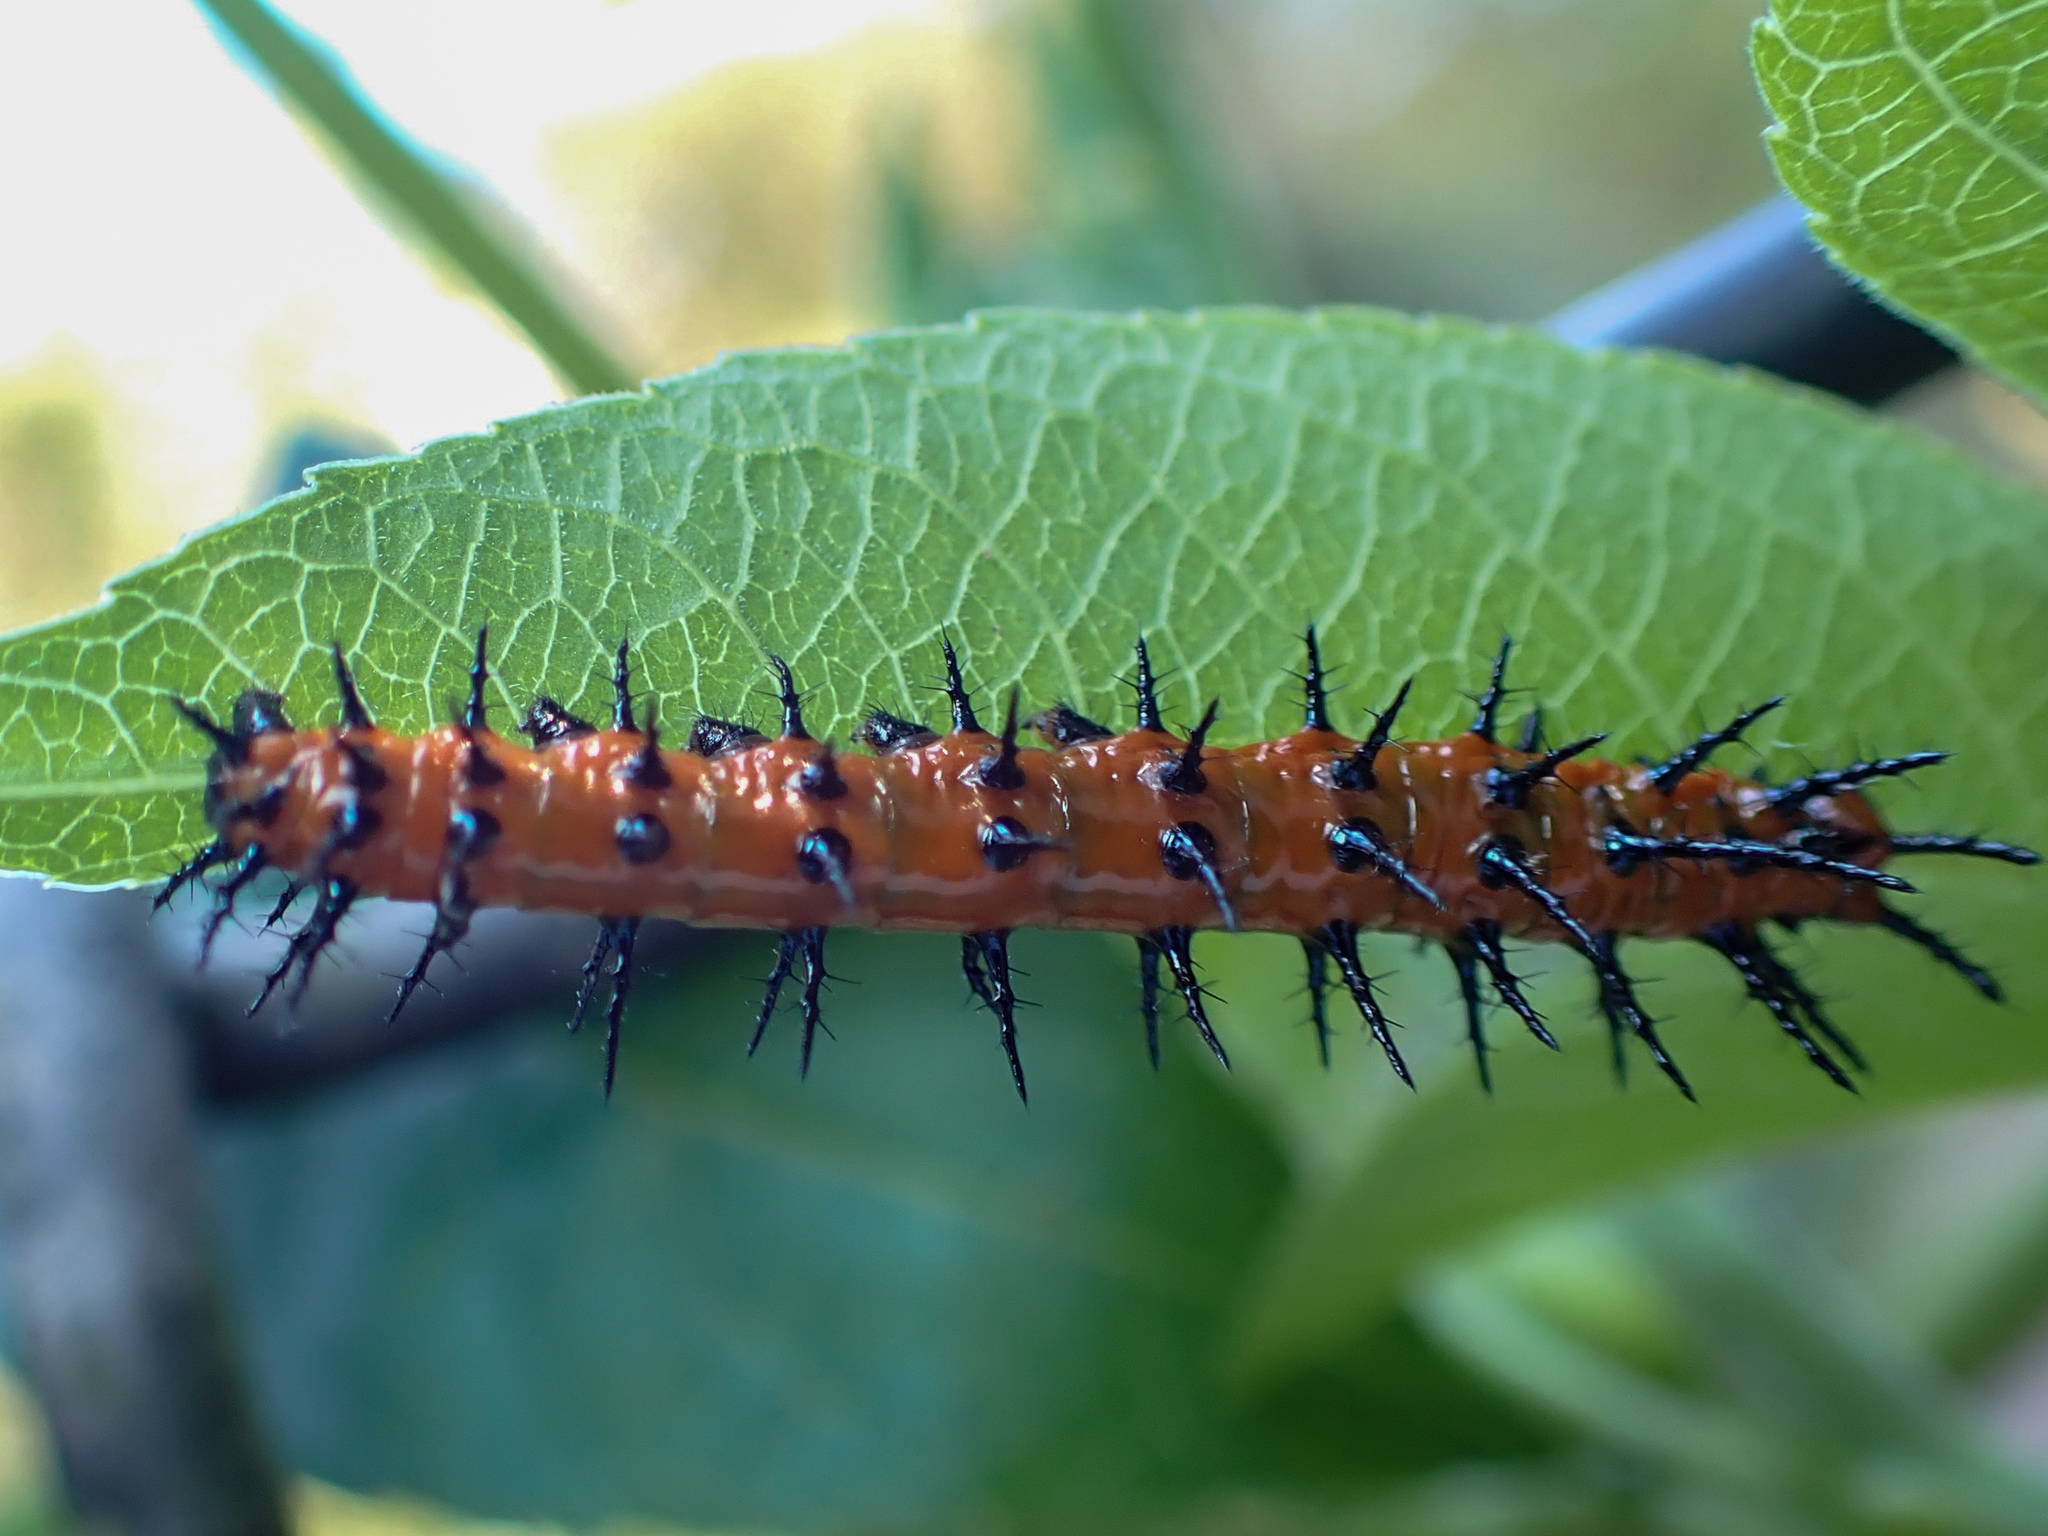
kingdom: Animalia
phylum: Arthropoda
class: Insecta
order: Lepidoptera
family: Nymphalidae
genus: Dione
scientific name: Dione vanillae
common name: Gulf fritillary
